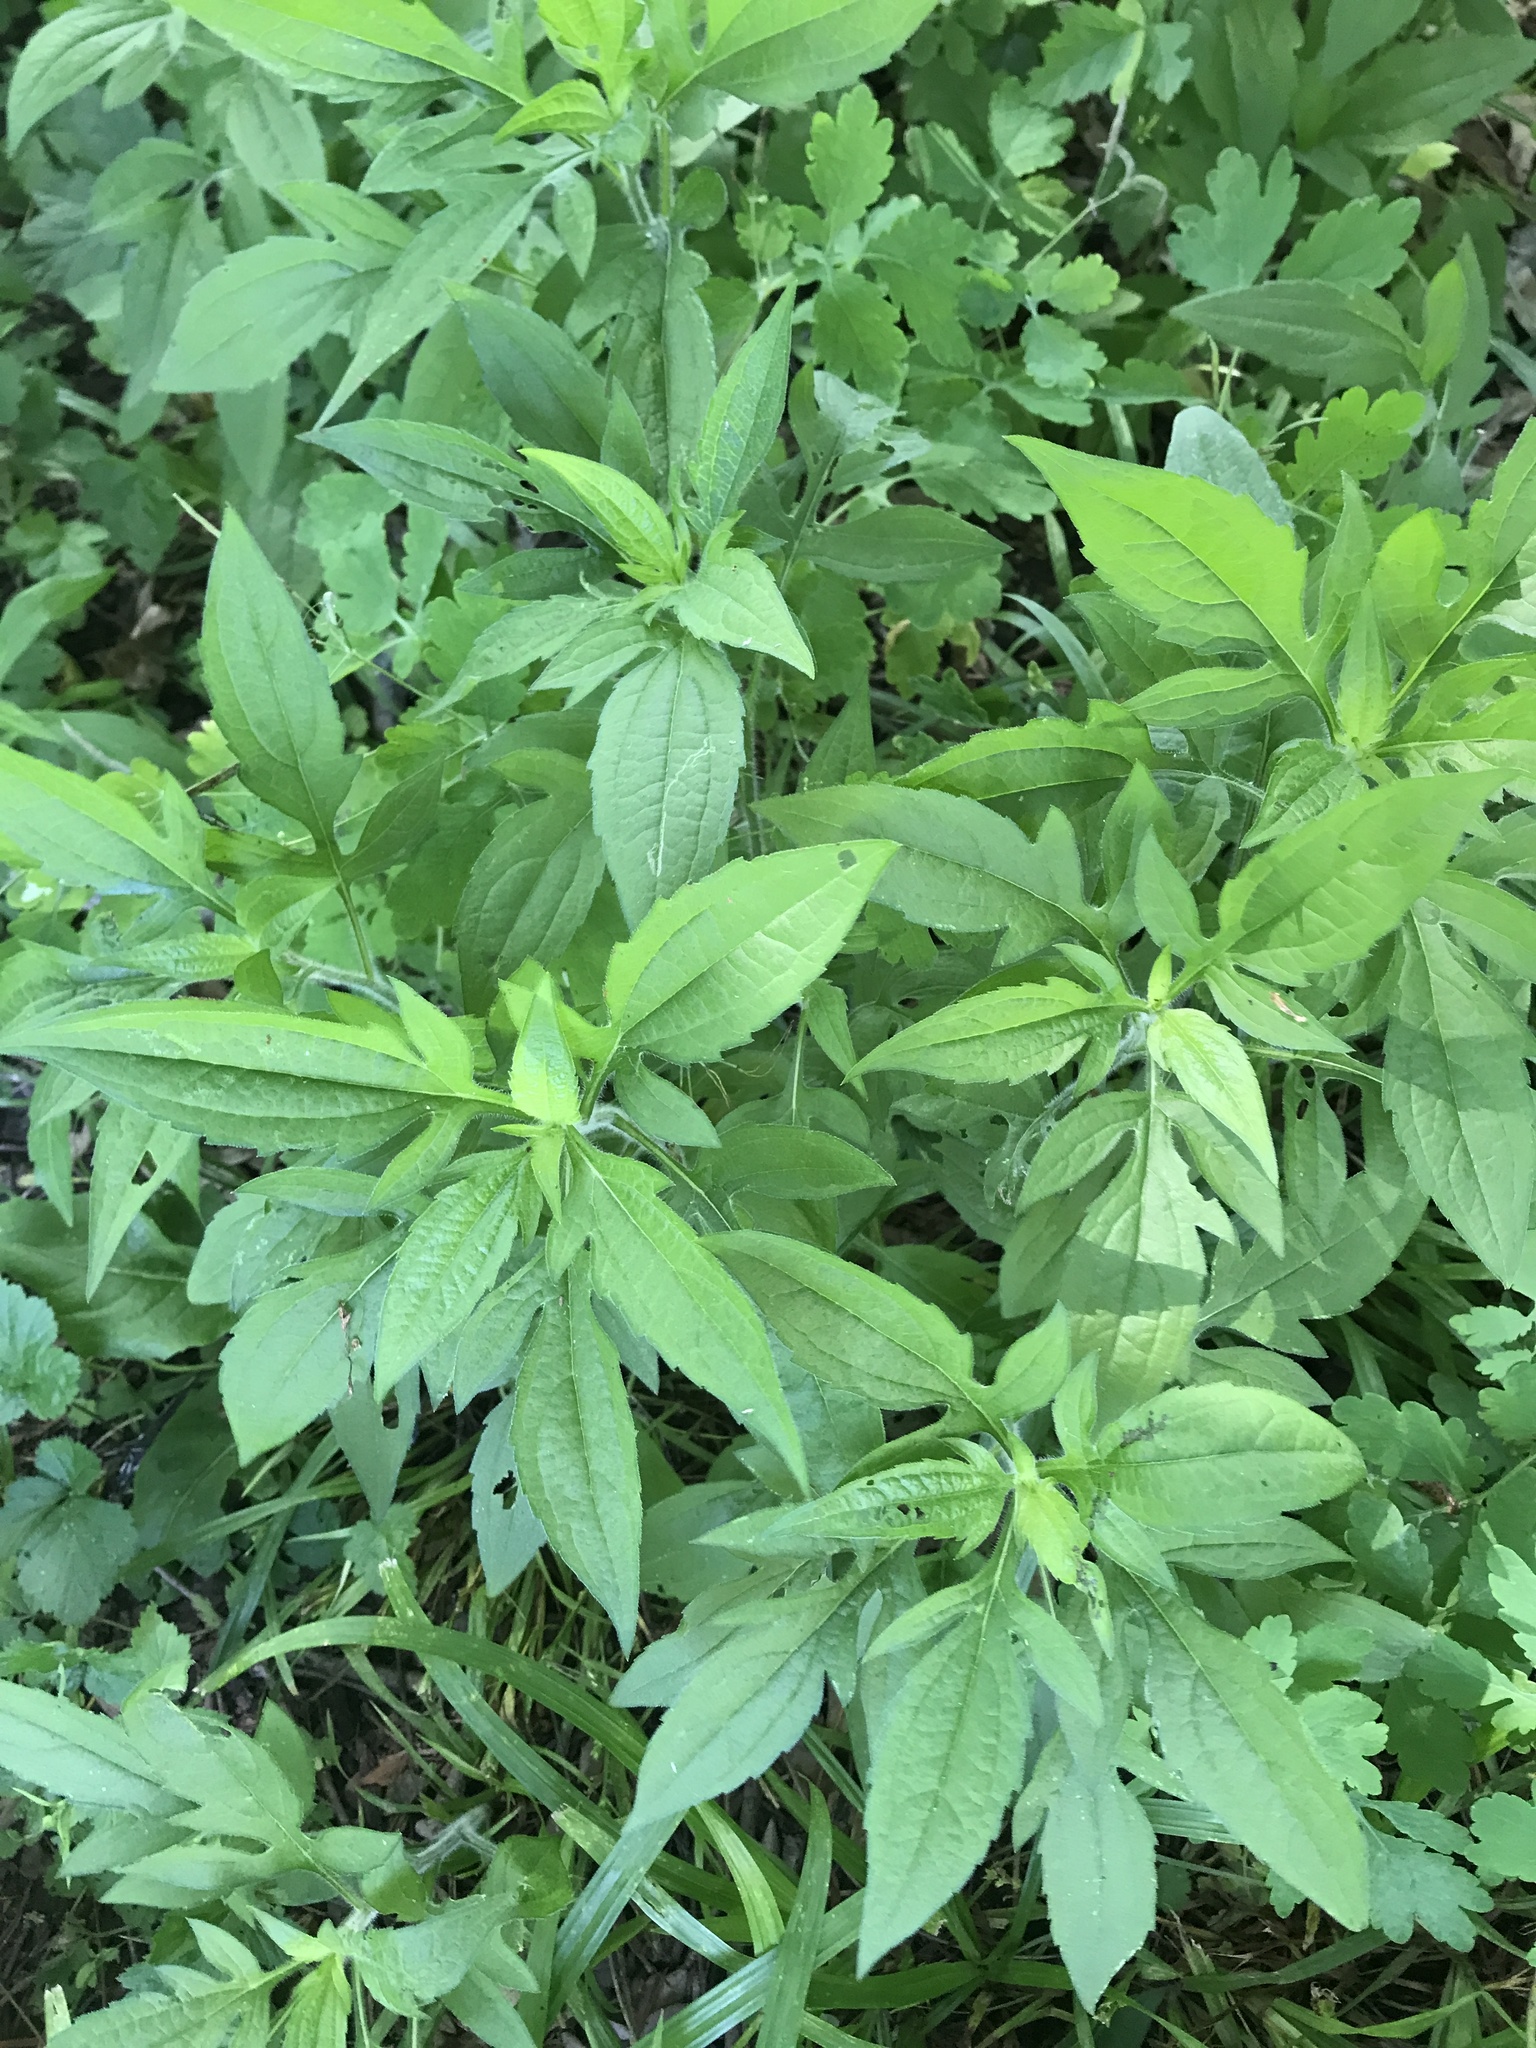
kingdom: Plantae
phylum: Tracheophyta
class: Magnoliopsida
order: Asterales
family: Asteraceae
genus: Ambrosia
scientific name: Ambrosia trifida
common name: Giant ragweed
